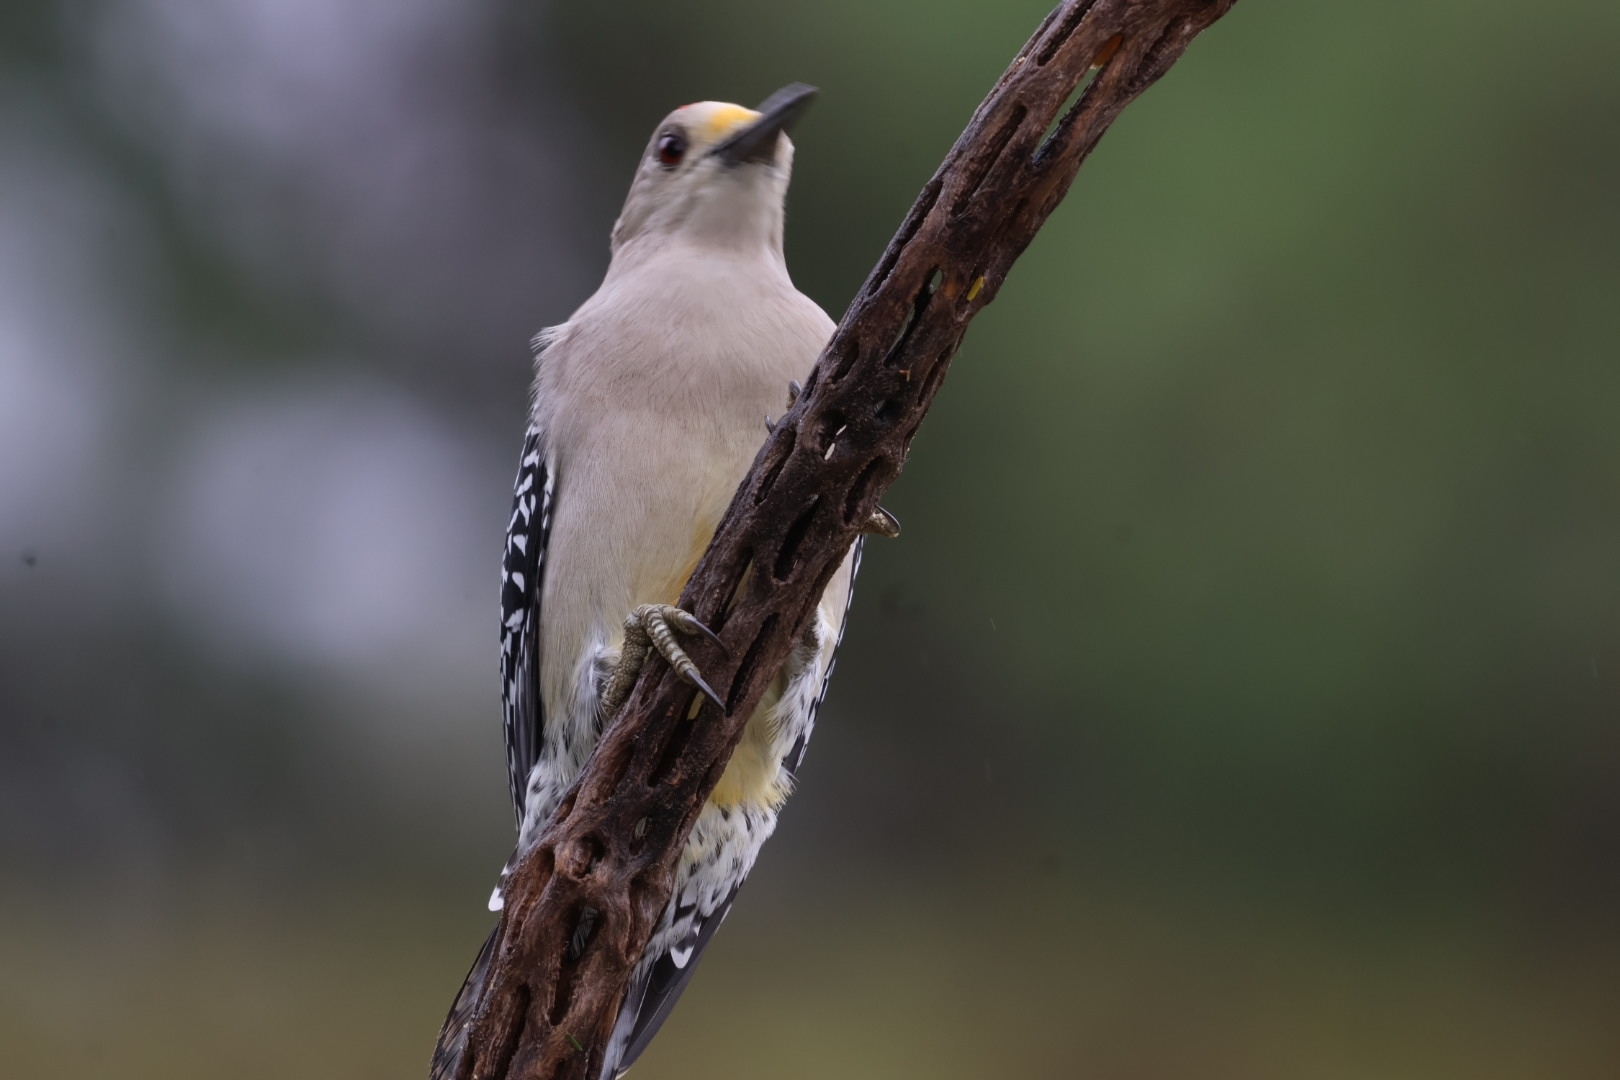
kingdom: Animalia
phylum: Chordata
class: Aves
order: Piciformes
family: Picidae
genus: Melanerpes
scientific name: Melanerpes aurifrons
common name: Golden-fronted woodpecker
